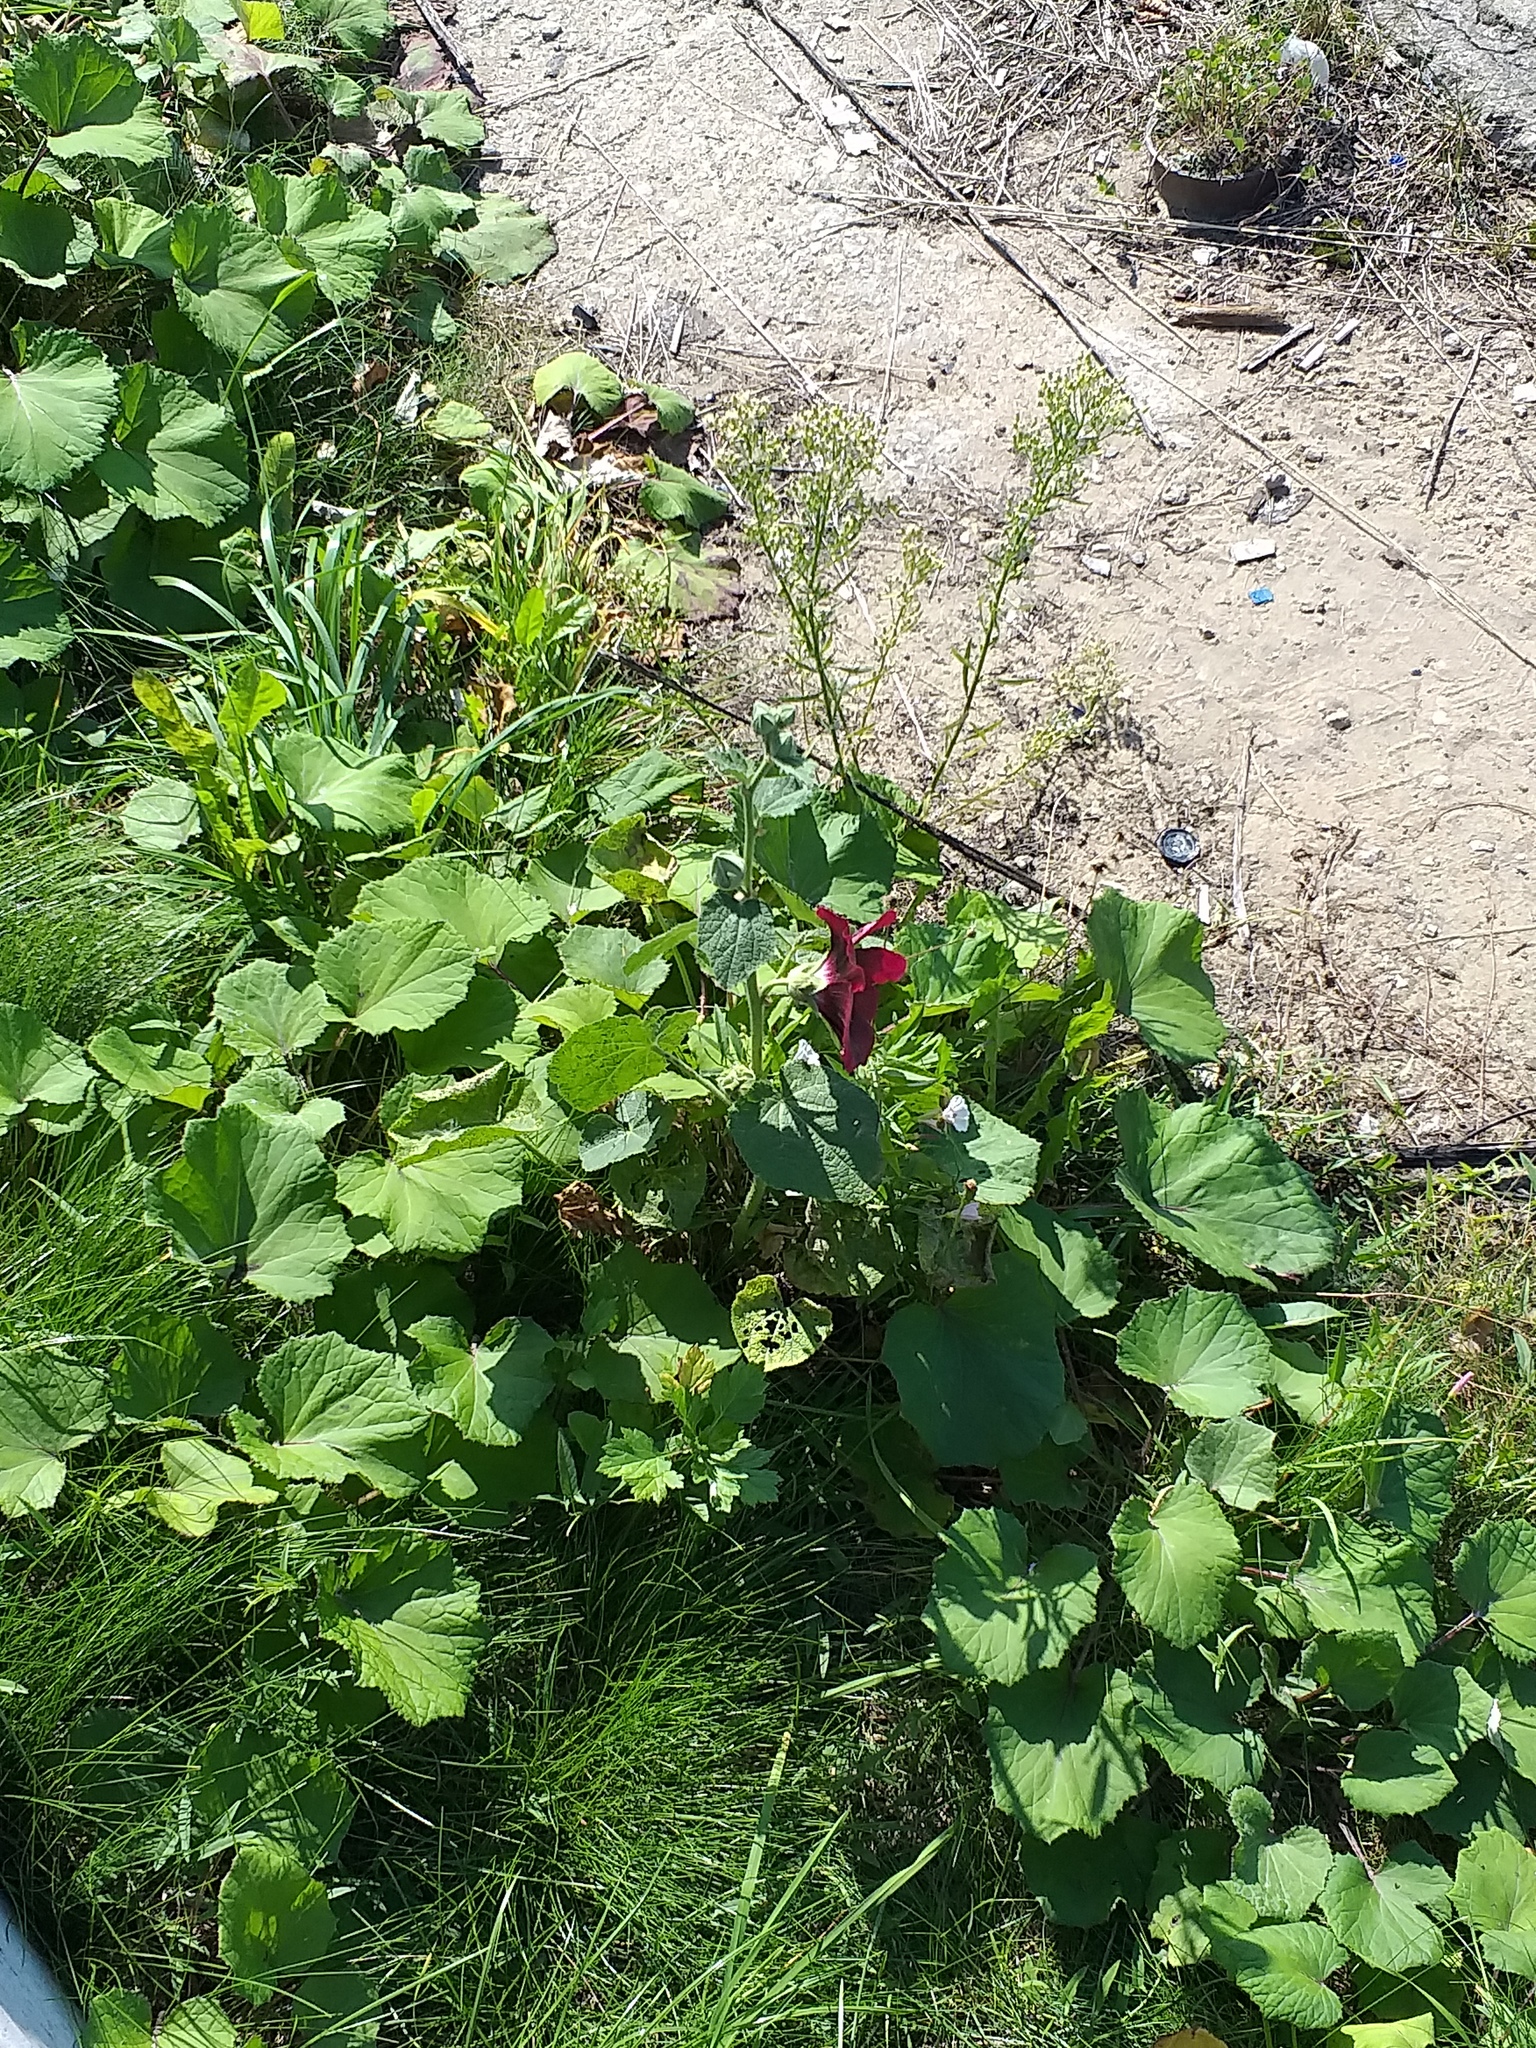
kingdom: Plantae
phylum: Tracheophyta
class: Magnoliopsida
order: Malvales
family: Malvaceae
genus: Alcea
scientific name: Alcea rosea
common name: Hollyhock
